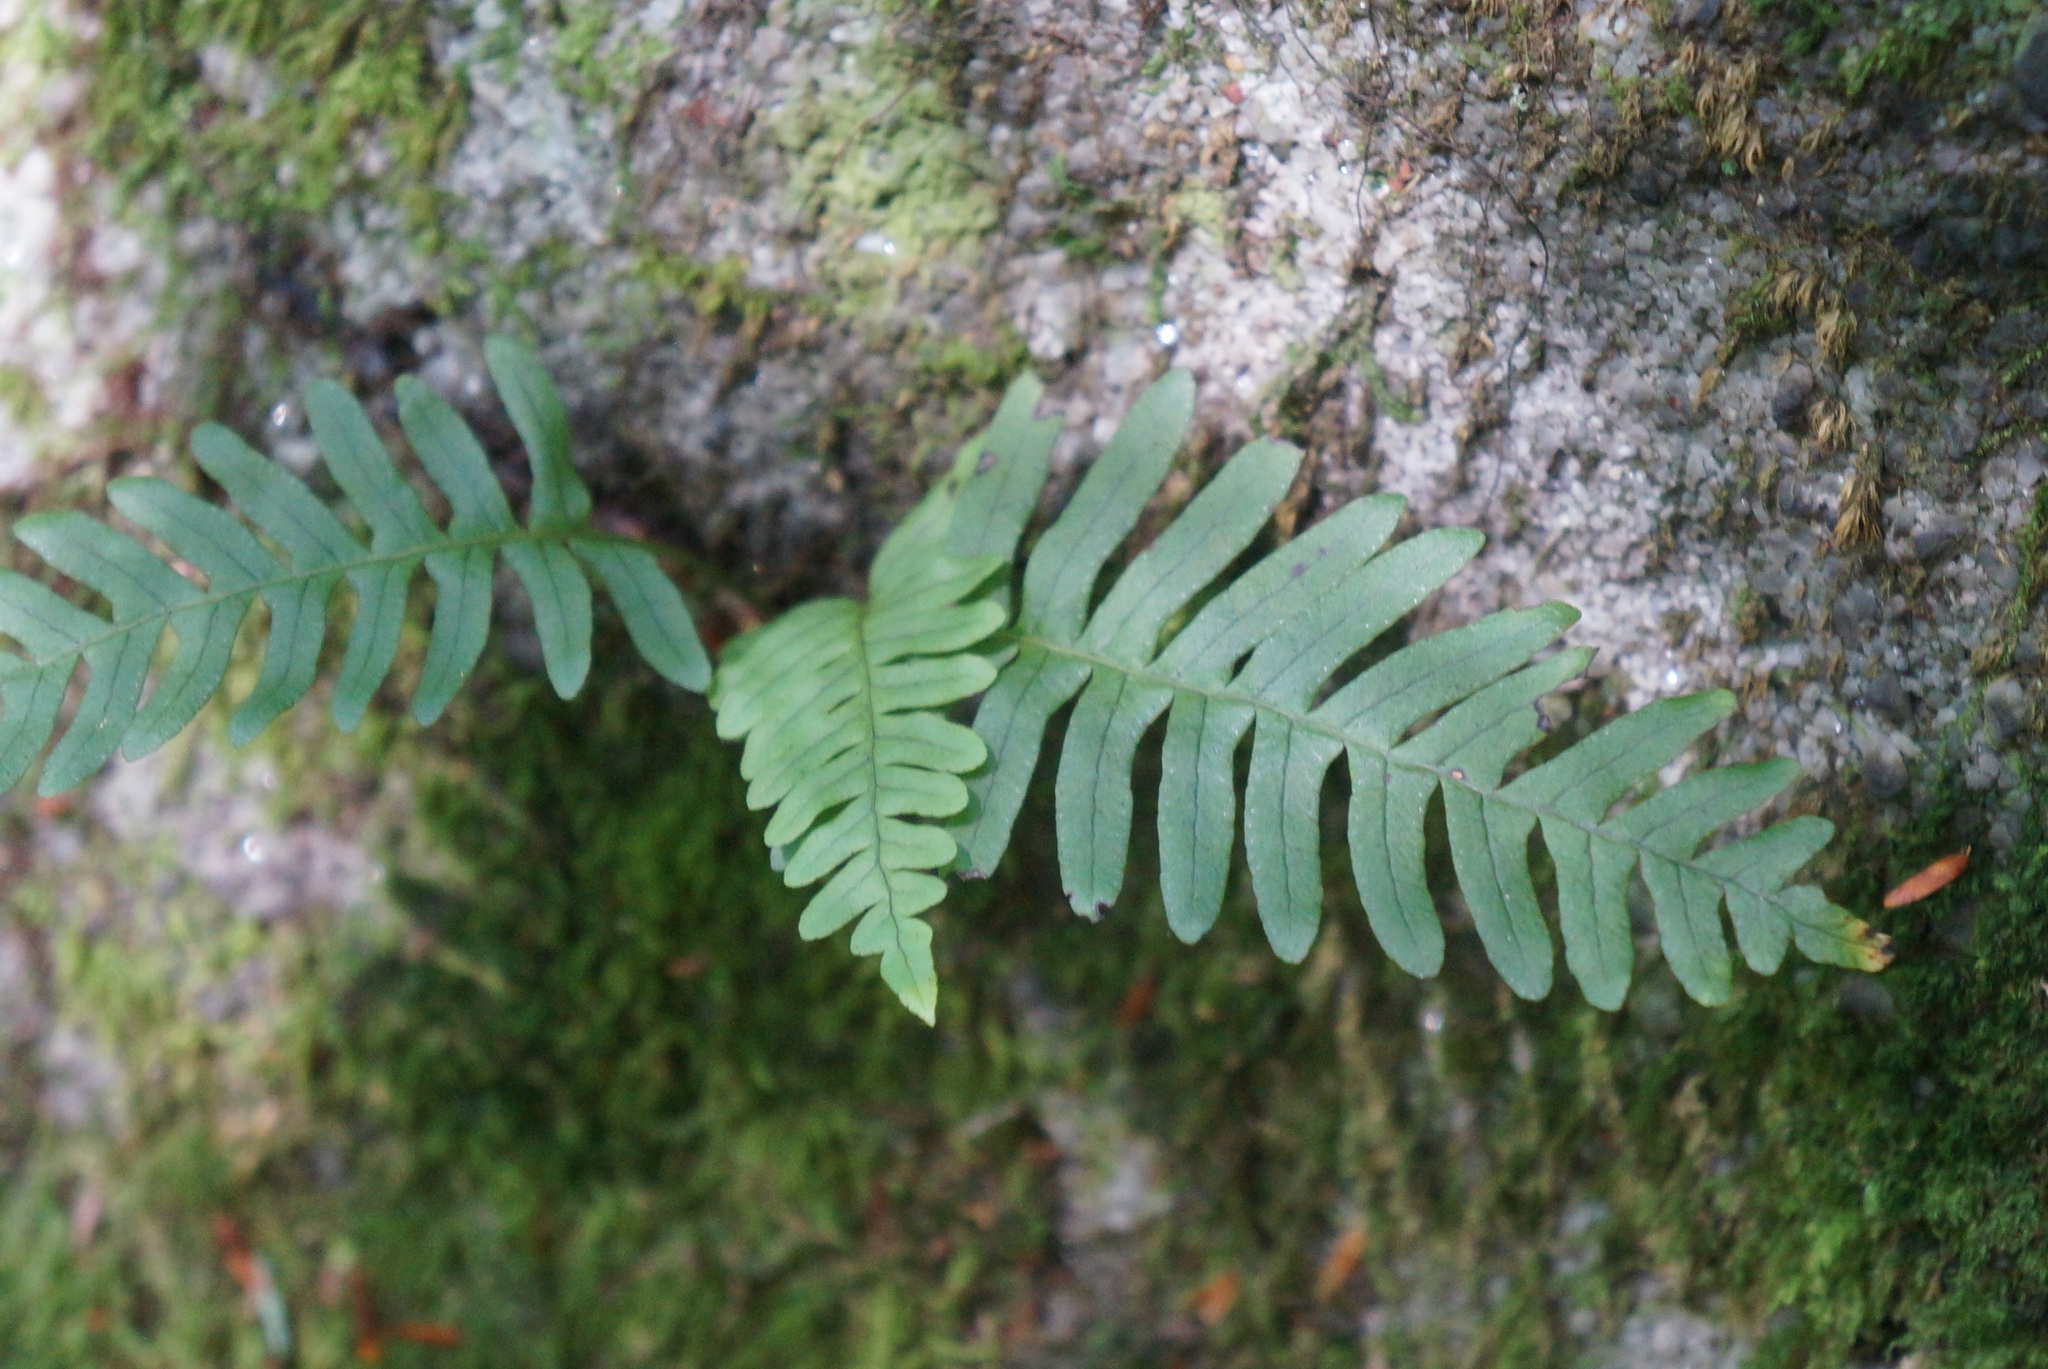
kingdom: Plantae
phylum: Tracheophyta
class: Polypodiopsida
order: Polypodiales
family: Polypodiaceae
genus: Polypodium
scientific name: Polypodium virginianum
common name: American wall fern
